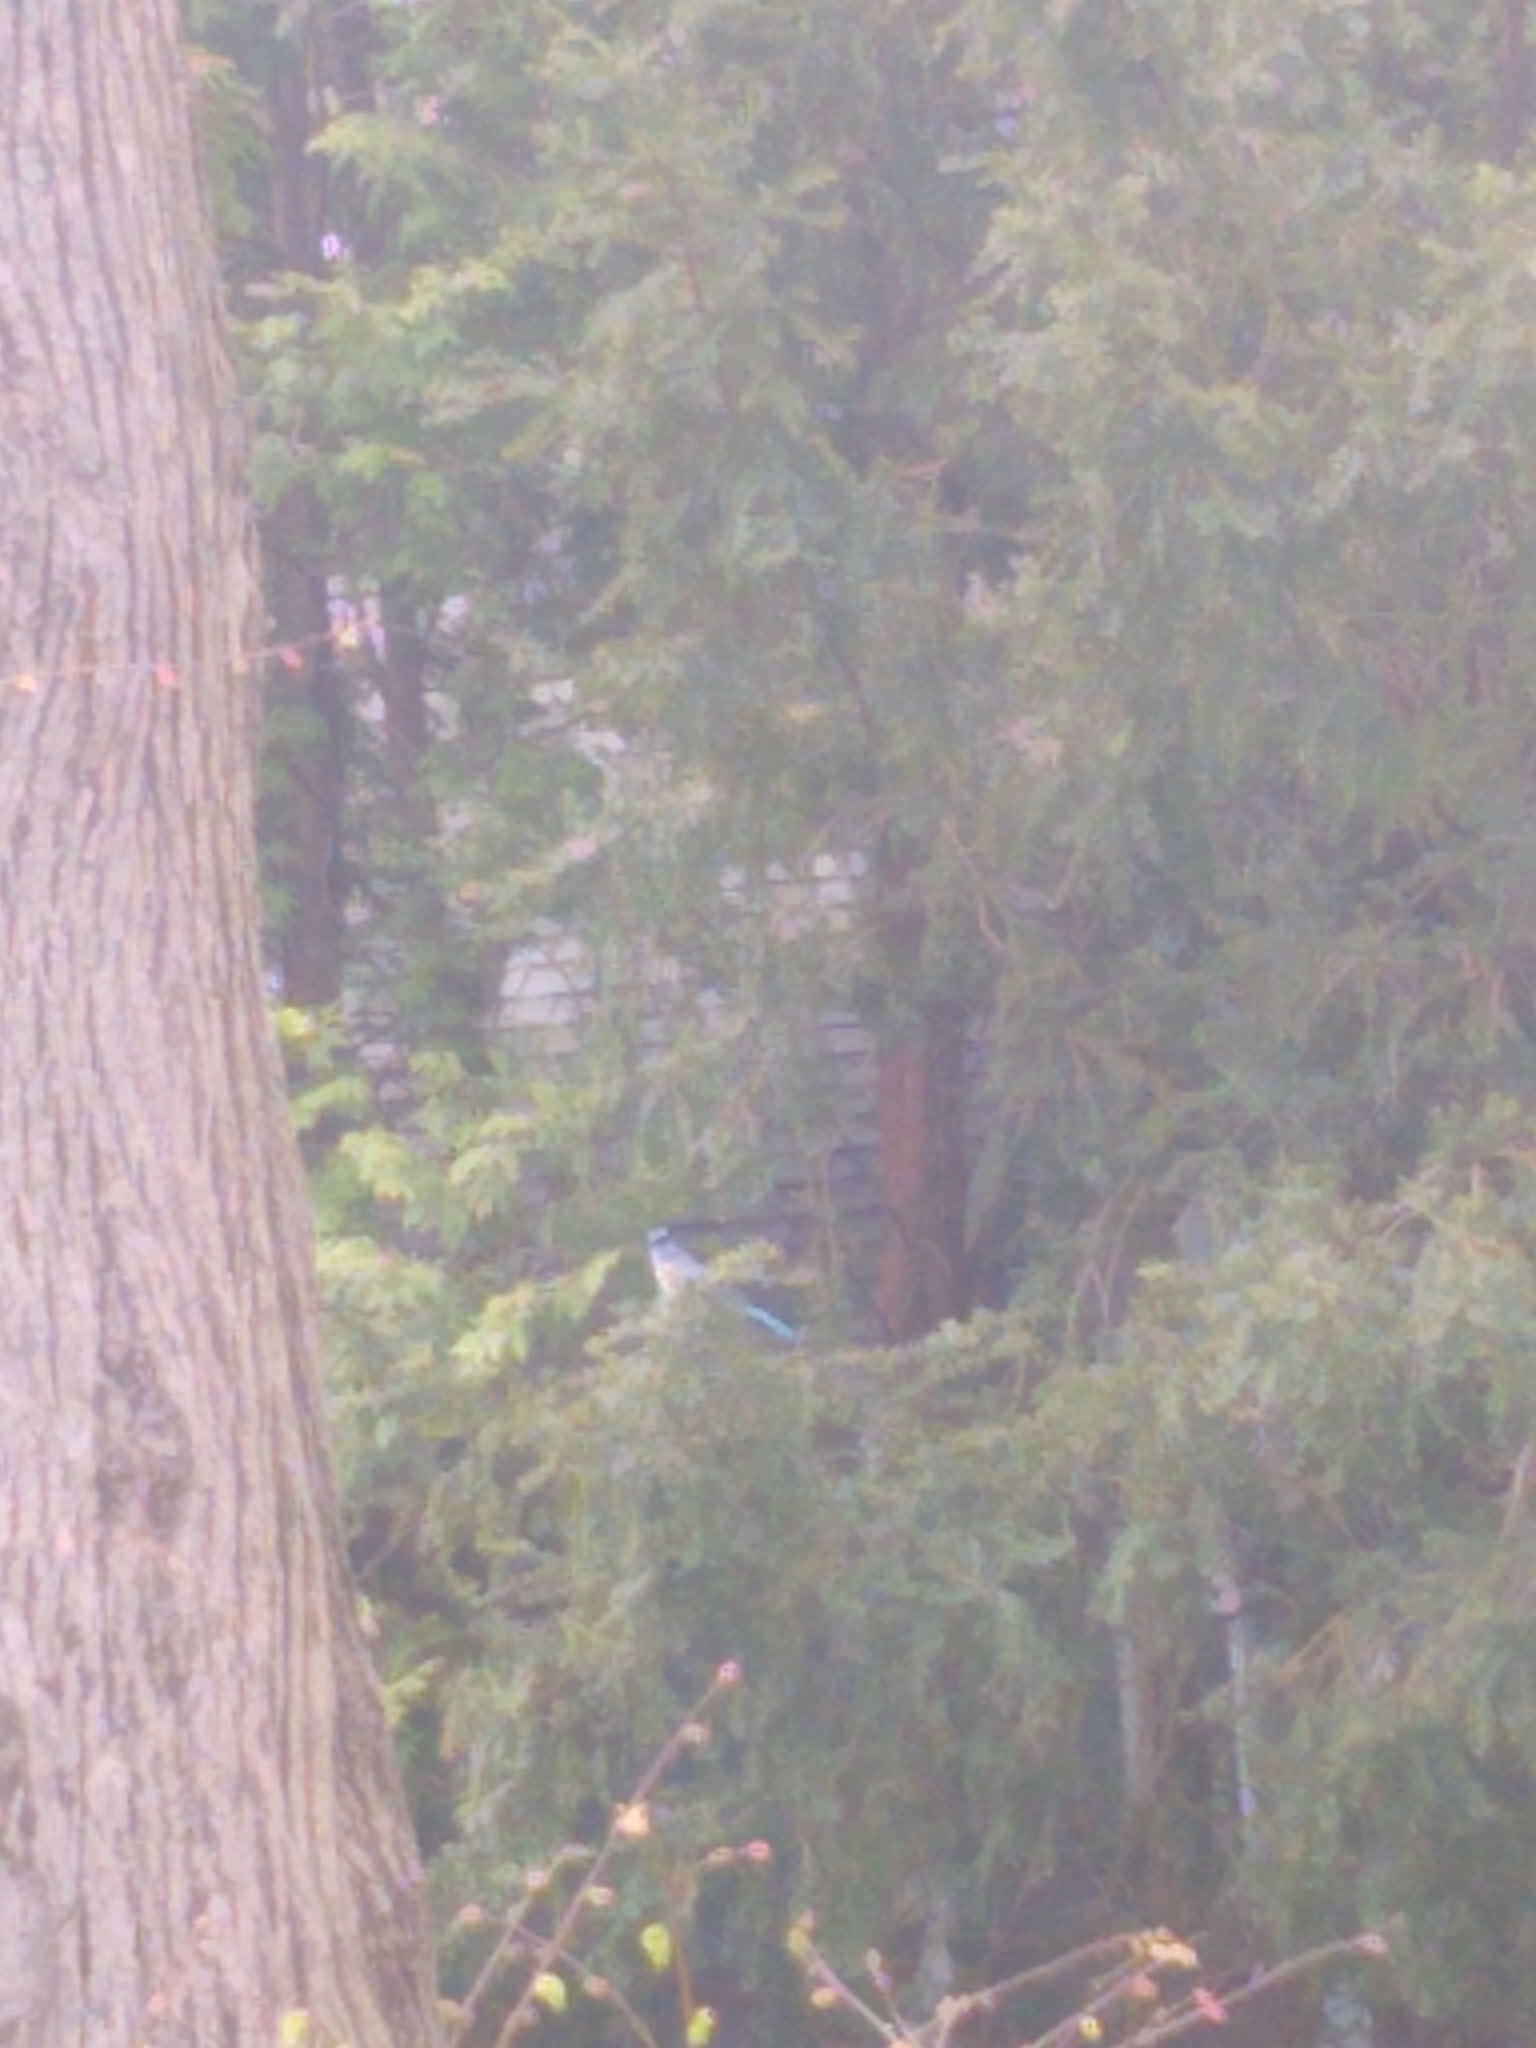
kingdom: Animalia
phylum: Chordata
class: Aves
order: Passeriformes
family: Corvidae
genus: Cyanocitta
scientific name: Cyanocitta cristata
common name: Blue jay
